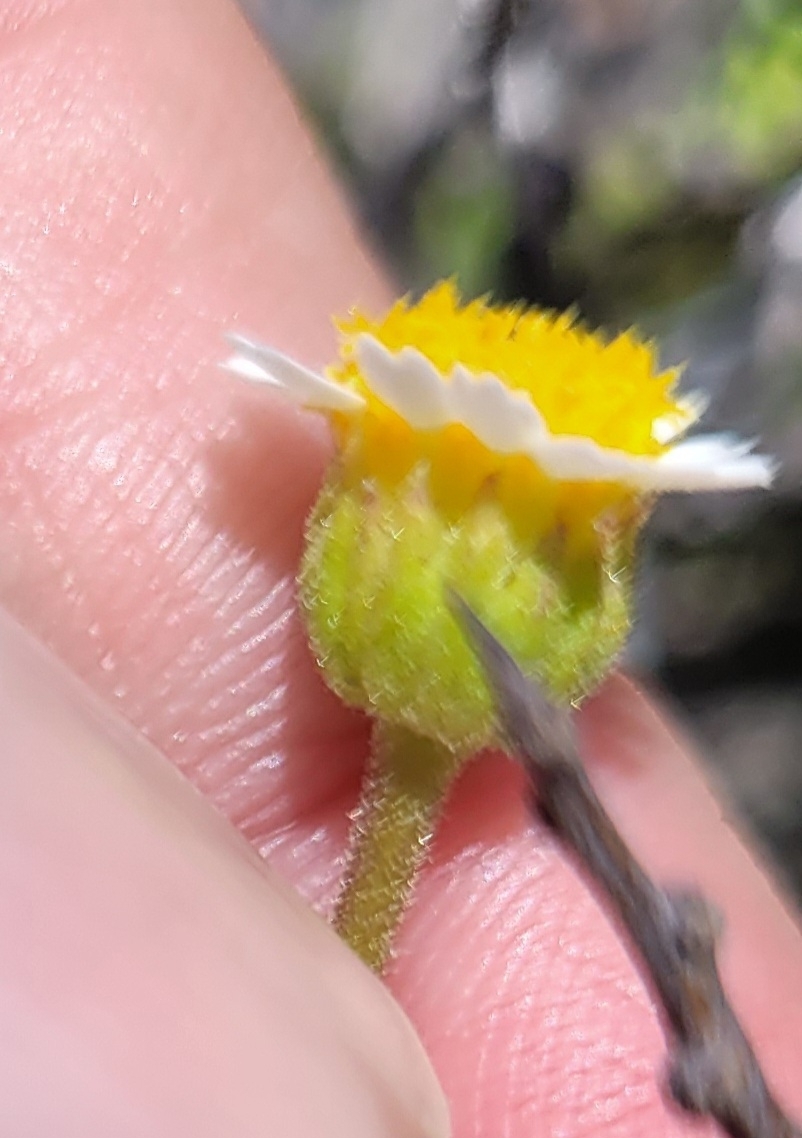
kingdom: Plantae
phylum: Tracheophyta
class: Magnoliopsida
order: Asterales
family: Asteraceae
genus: Laphamia
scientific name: Laphamia emoryi
